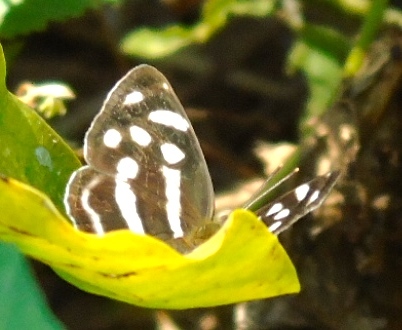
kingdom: Animalia
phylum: Arthropoda
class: Insecta
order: Lepidoptera
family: Nymphalidae
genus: Dynamine
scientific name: Dynamine mylitta
